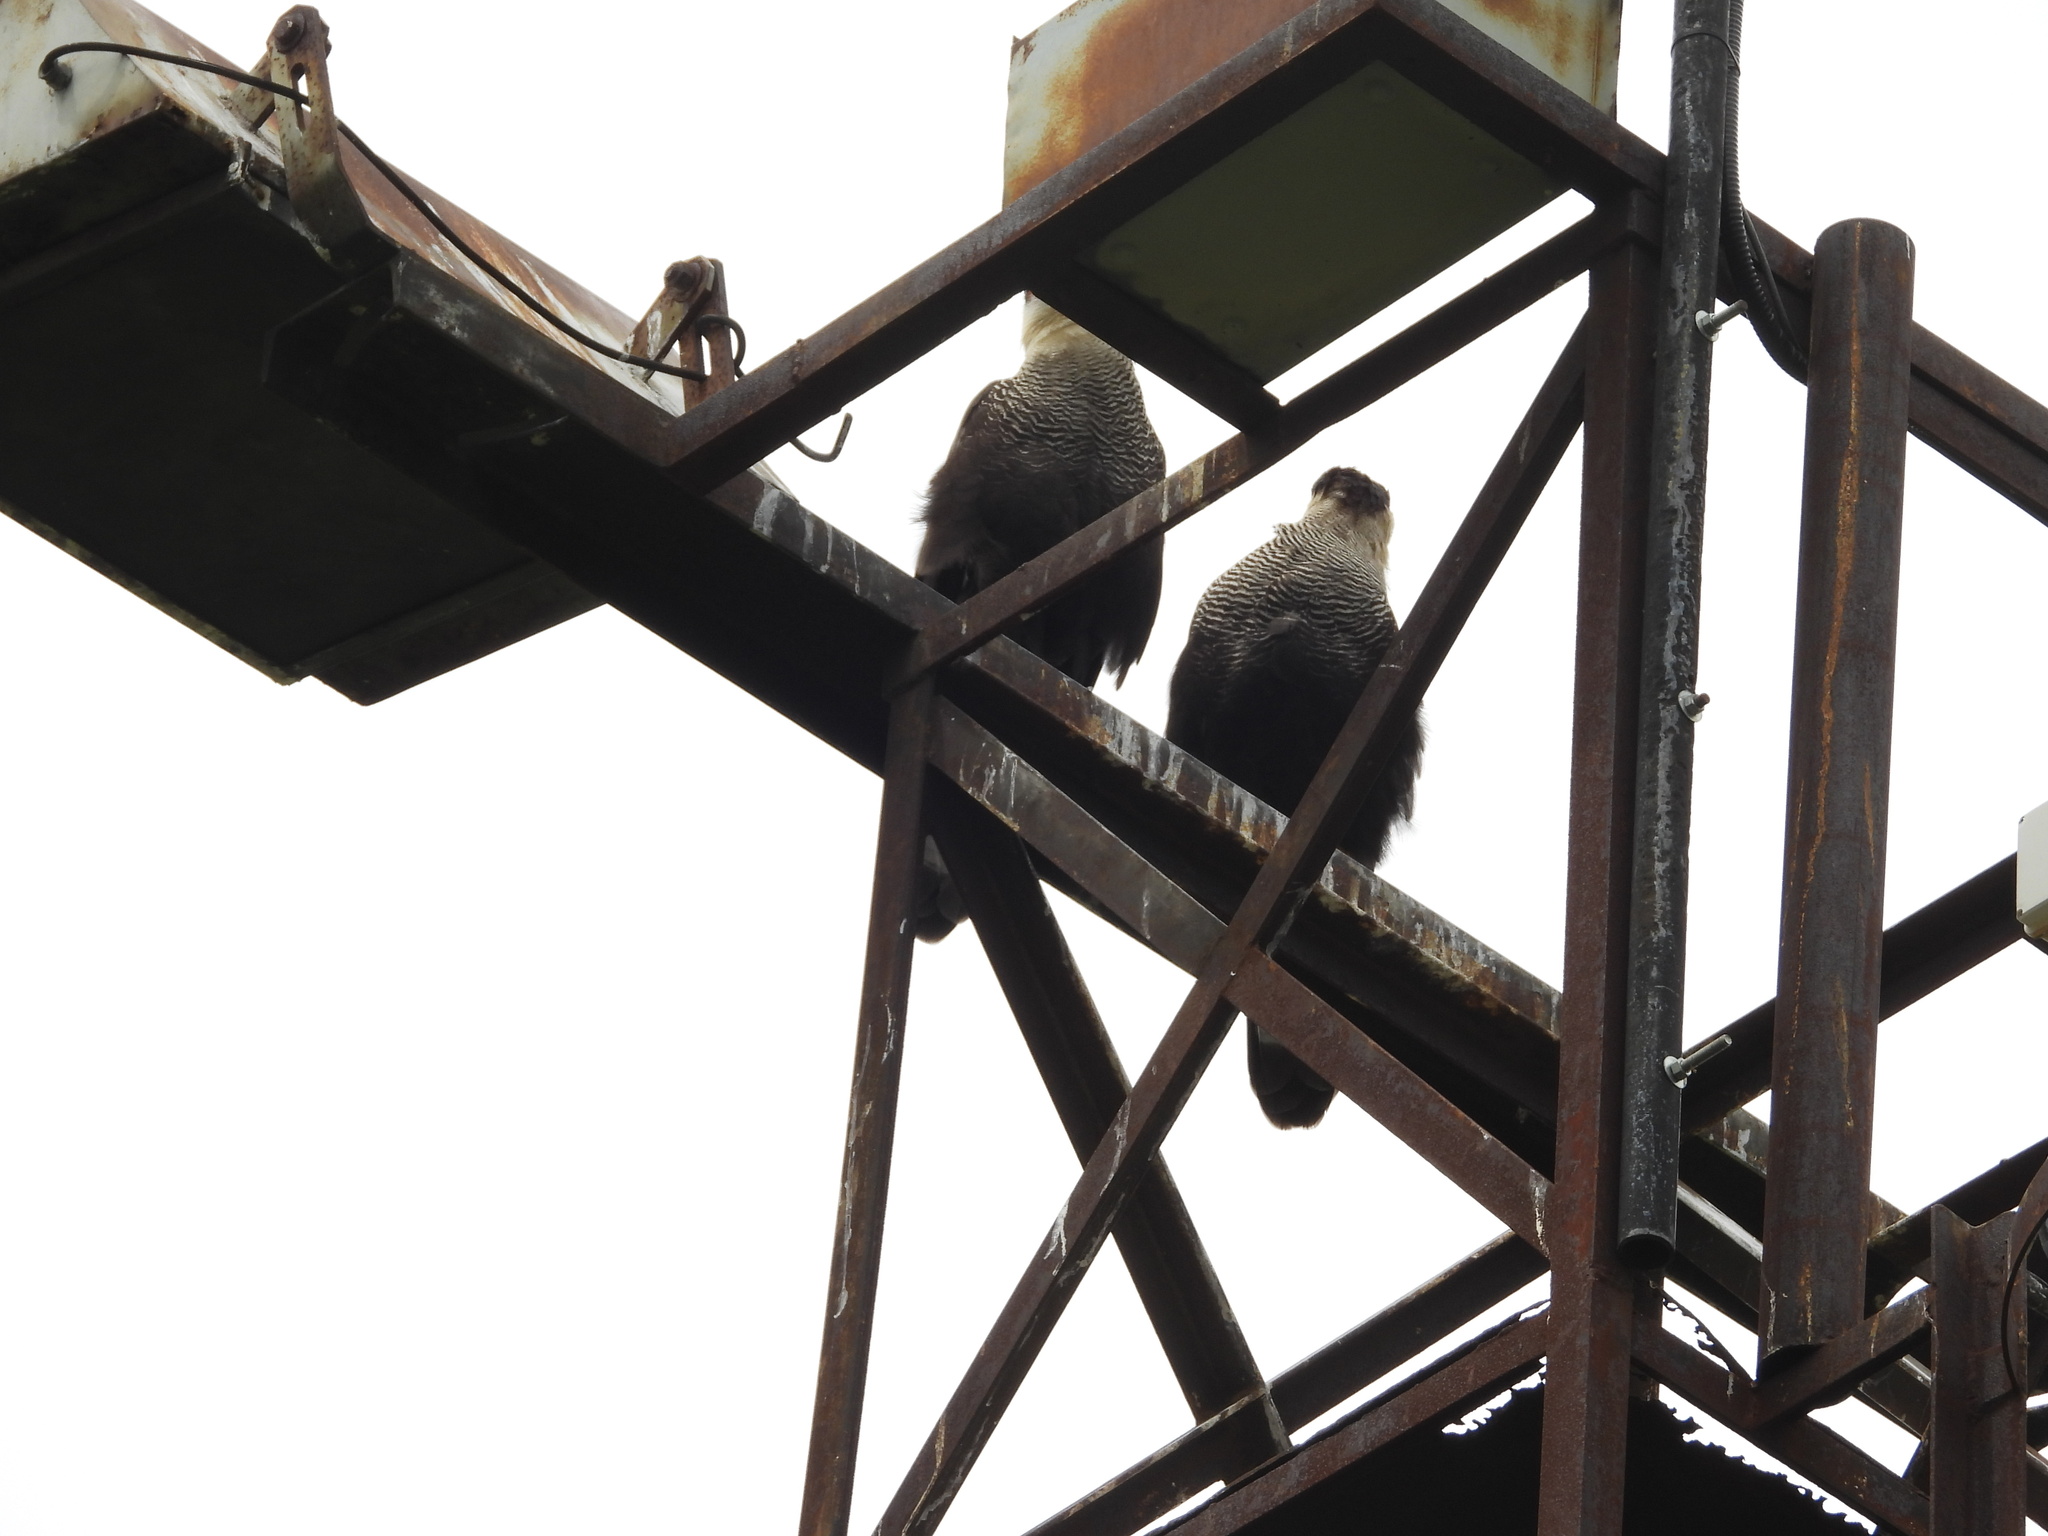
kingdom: Animalia
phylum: Chordata
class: Aves
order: Falconiformes
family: Falconidae
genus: Caracara
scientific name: Caracara plancus
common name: Southern caracara
